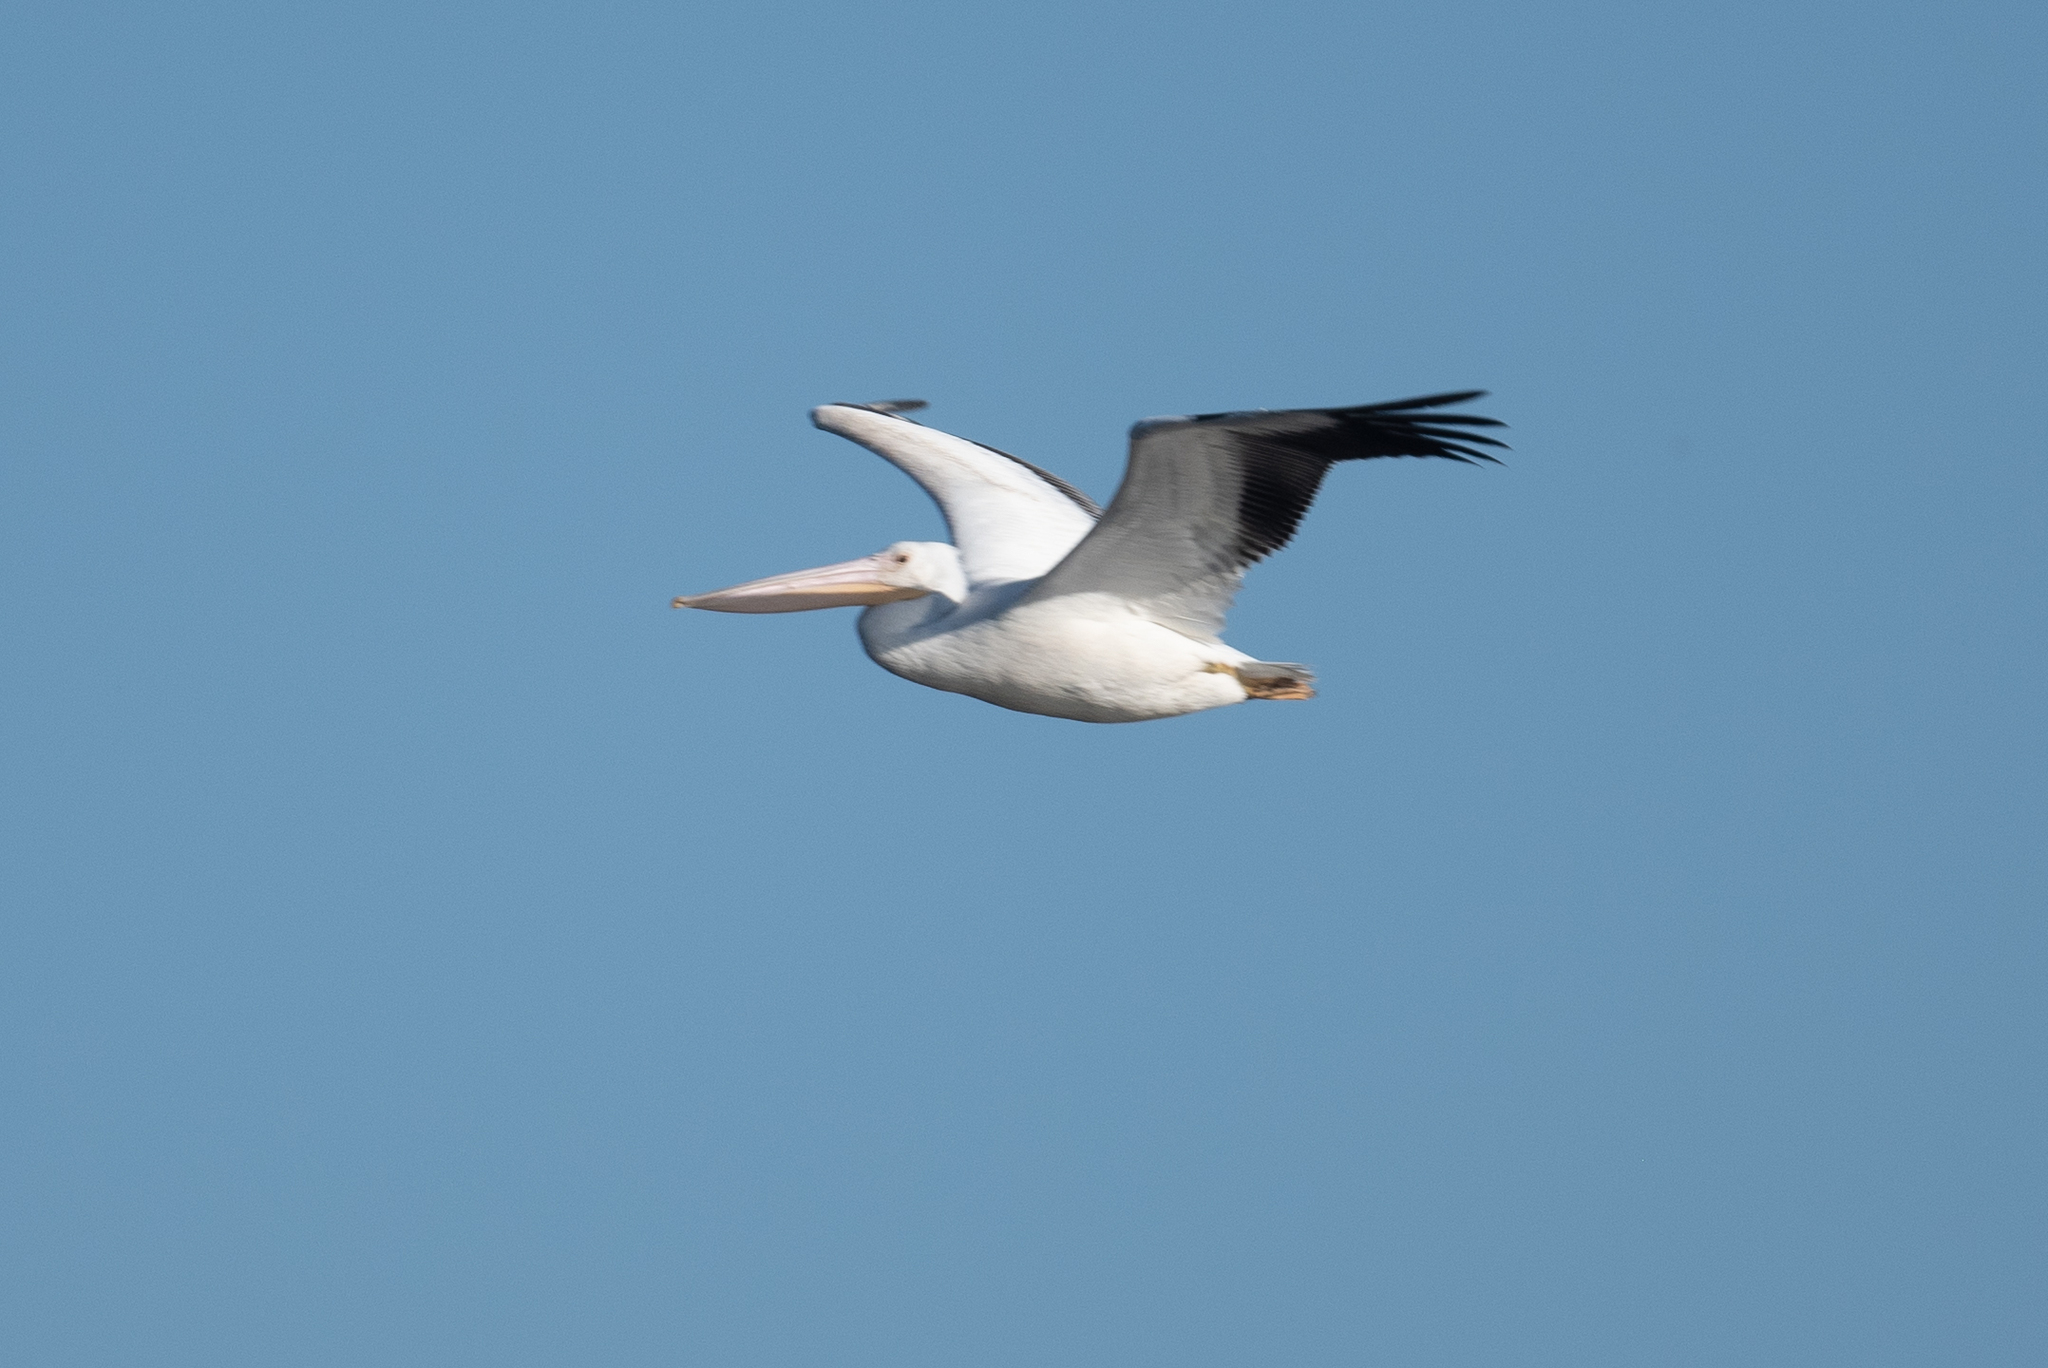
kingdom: Animalia
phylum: Chordata
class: Aves
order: Pelecaniformes
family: Pelecanidae
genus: Pelecanus
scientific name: Pelecanus erythrorhynchos
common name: American white pelican
